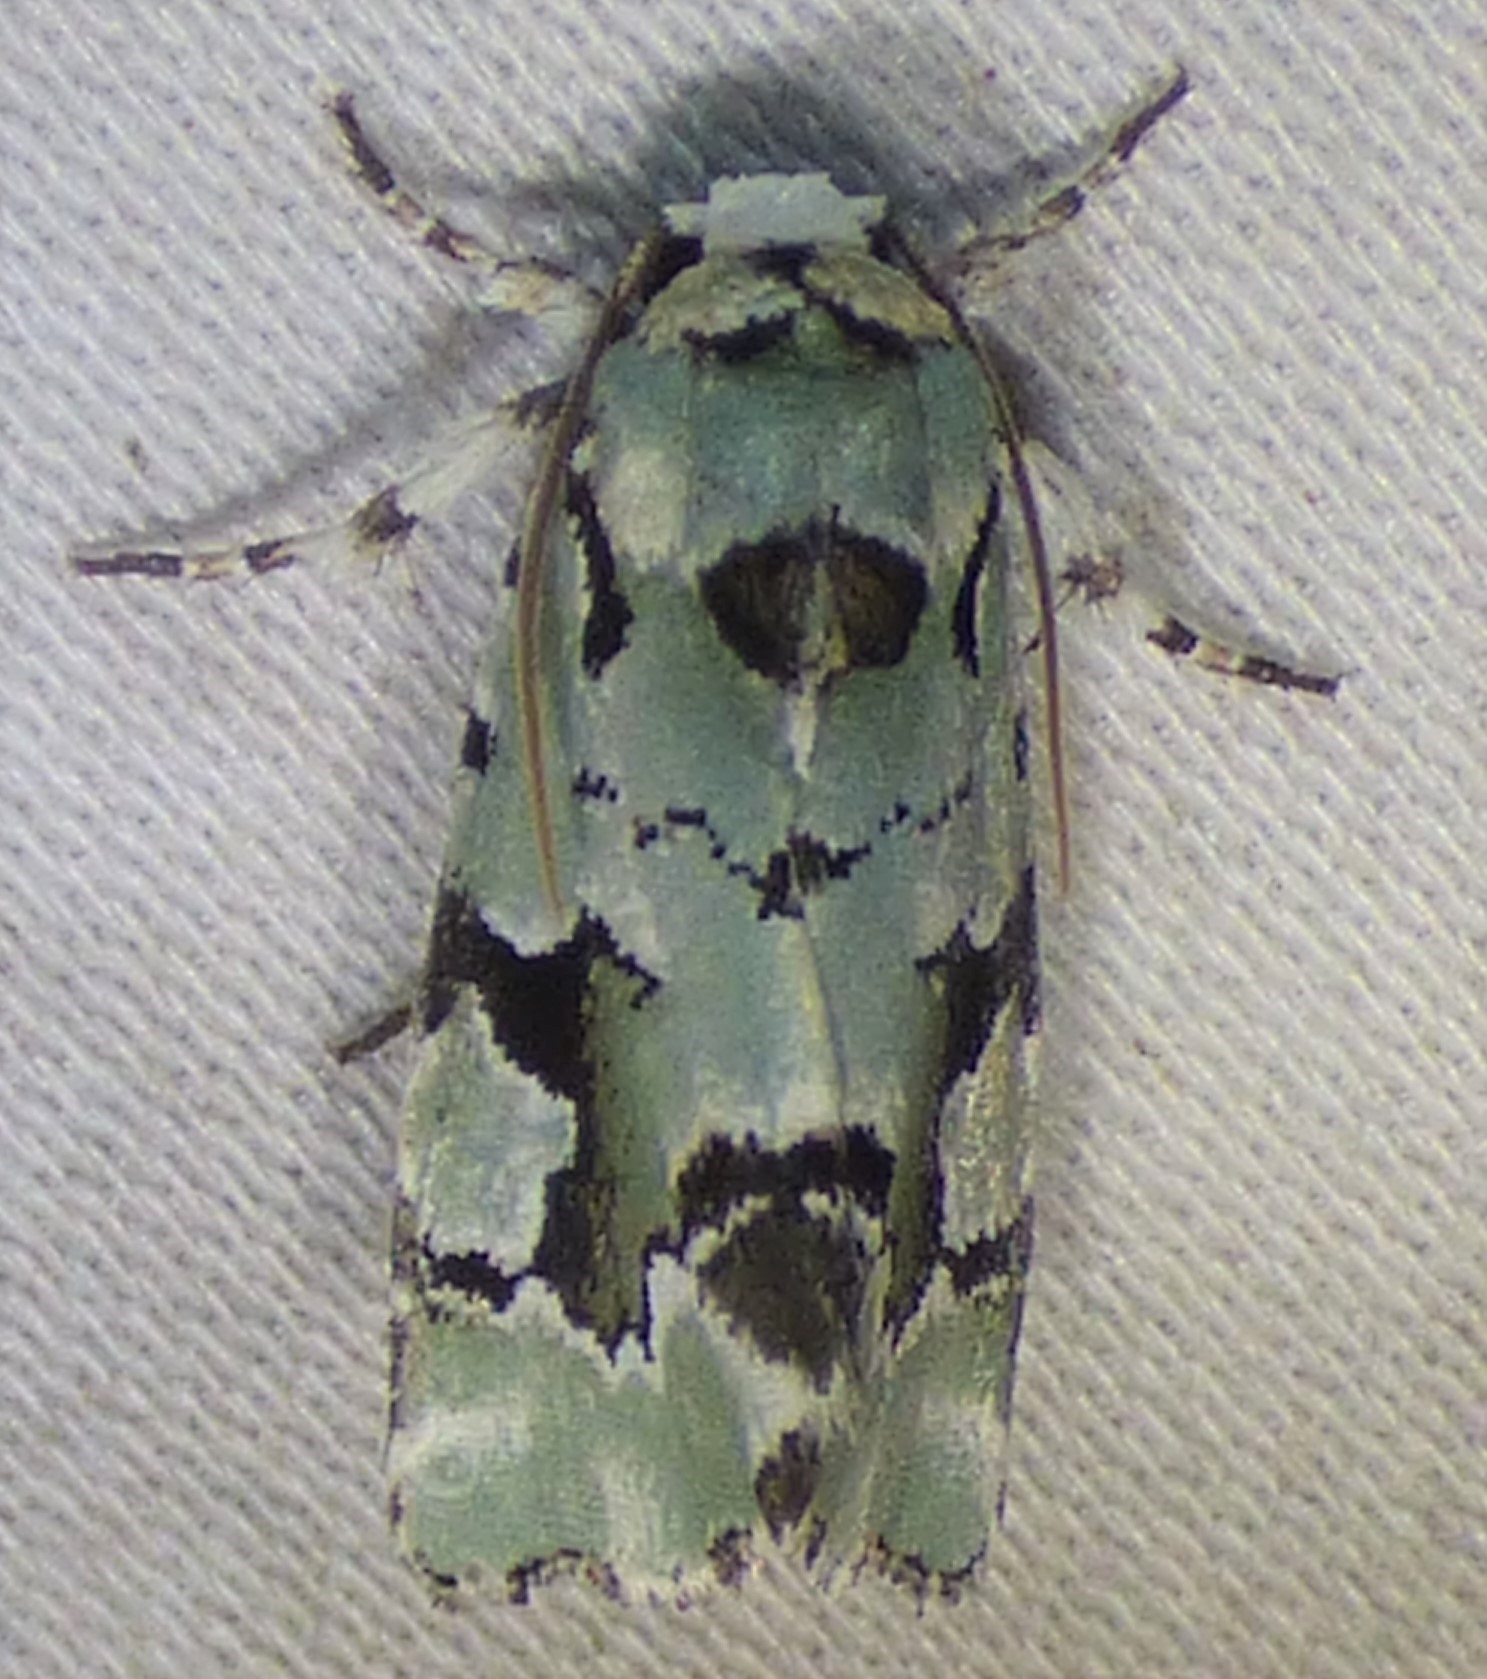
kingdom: Animalia
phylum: Arthropoda
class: Insecta
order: Lepidoptera
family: Noctuidae
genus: Emarginea
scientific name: Emarginea percara
